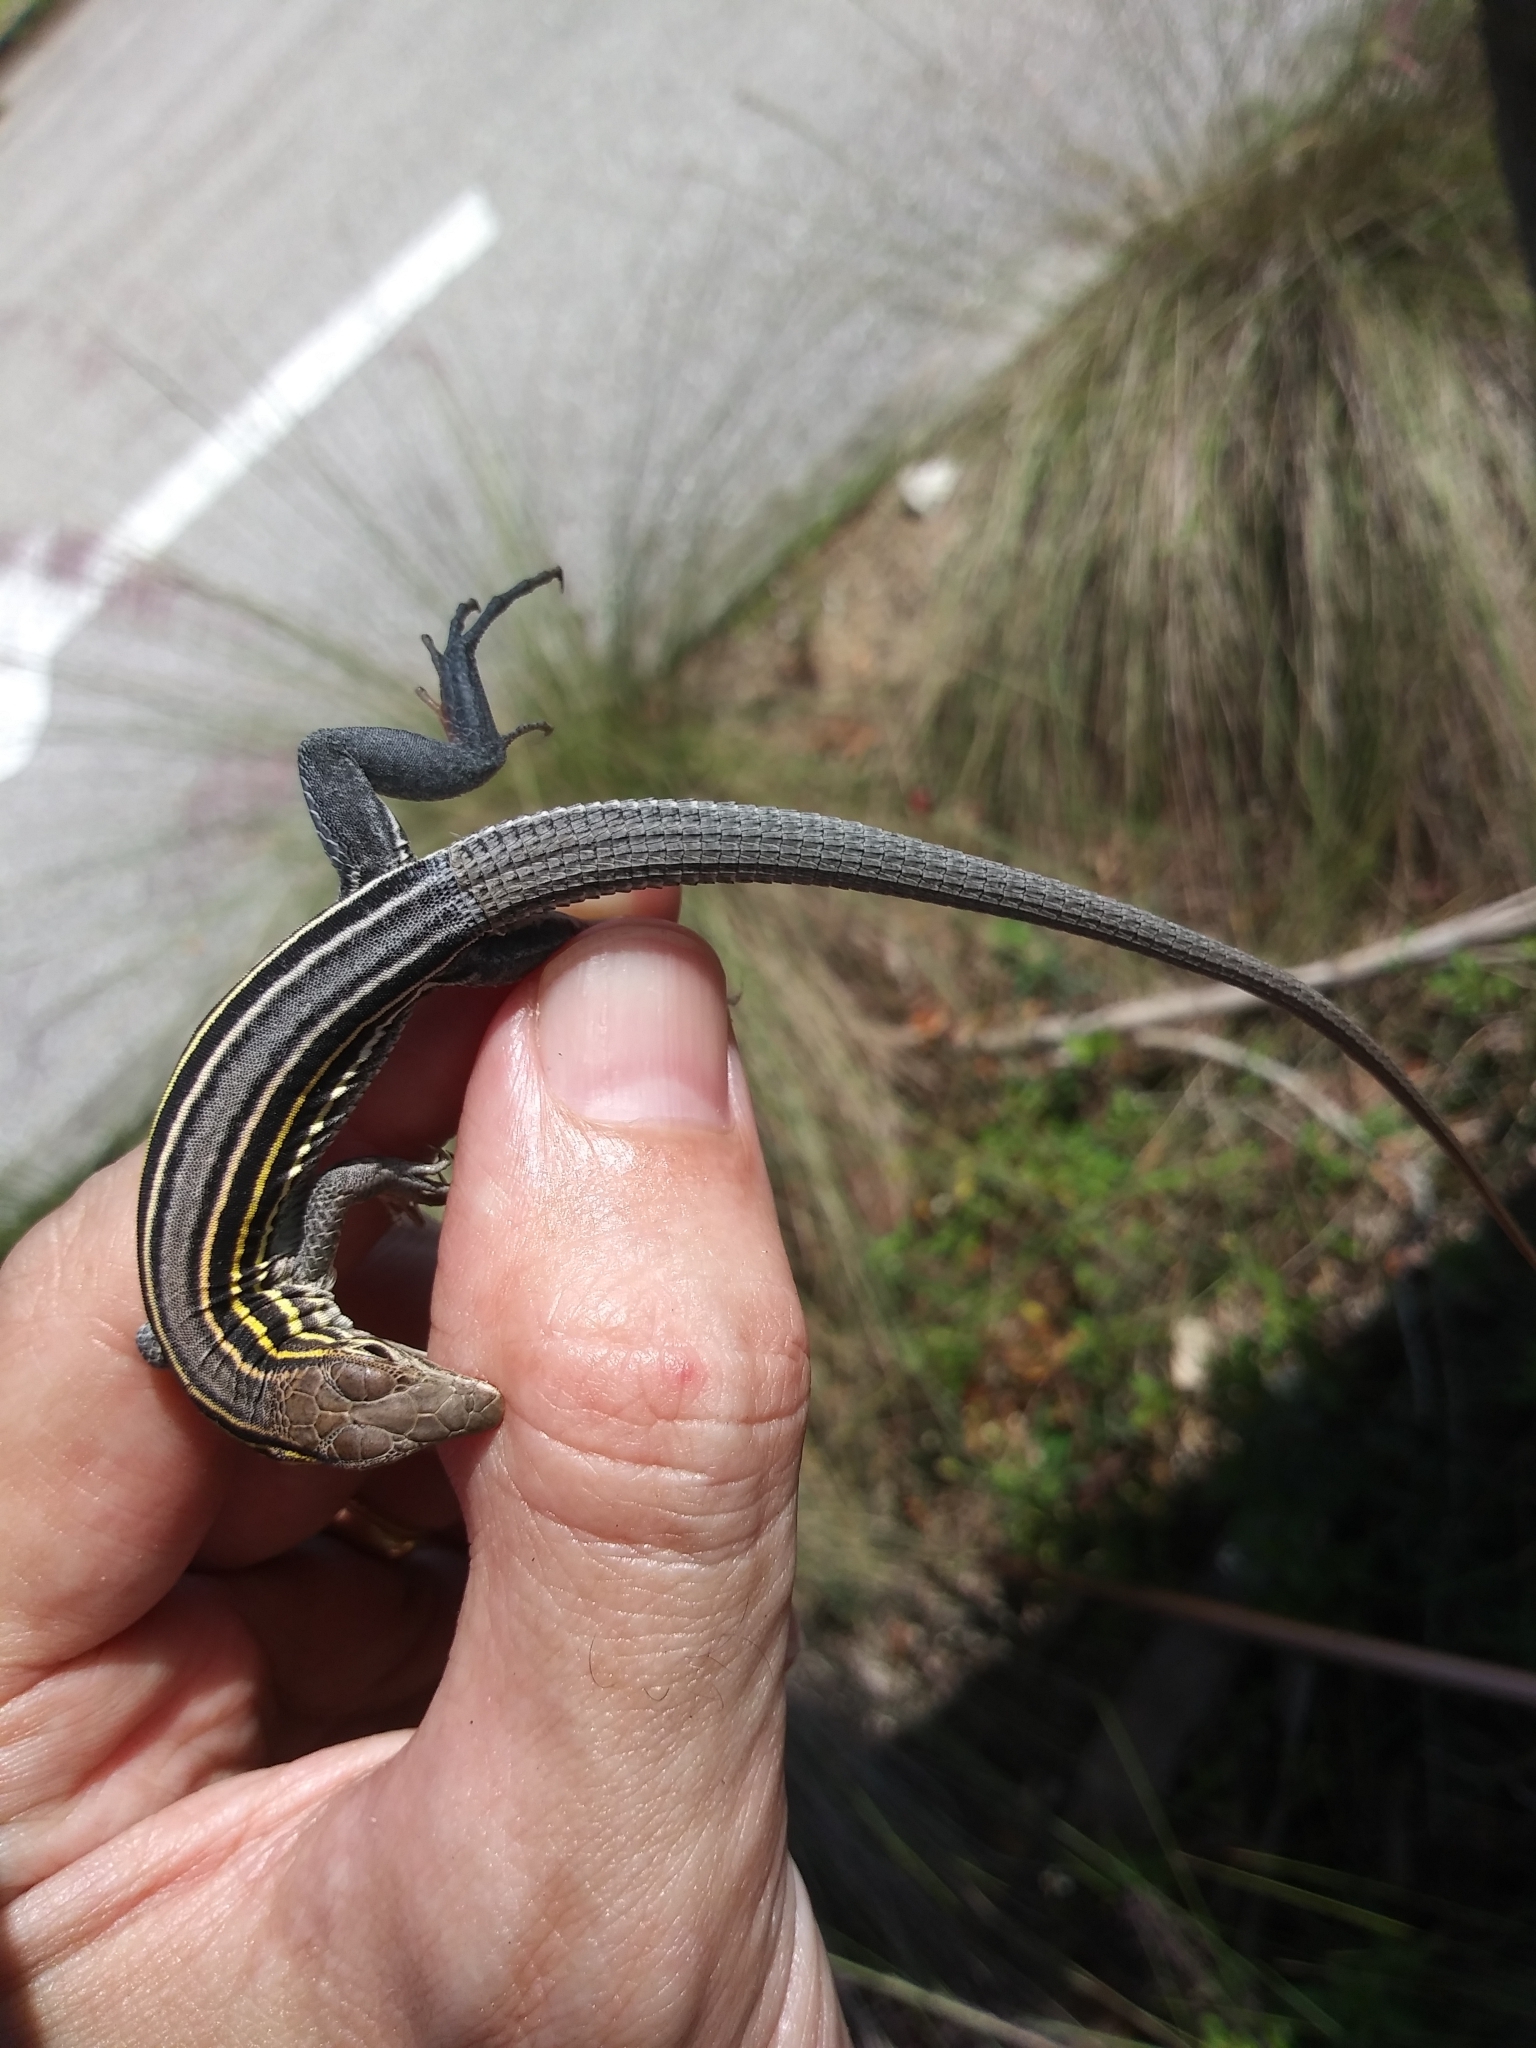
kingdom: Animalia
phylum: Chordata
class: Squamata
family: Teiidae
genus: Aspidoscelis
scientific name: Aspidoscelis sexlineatus
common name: Six-lined racerunner
